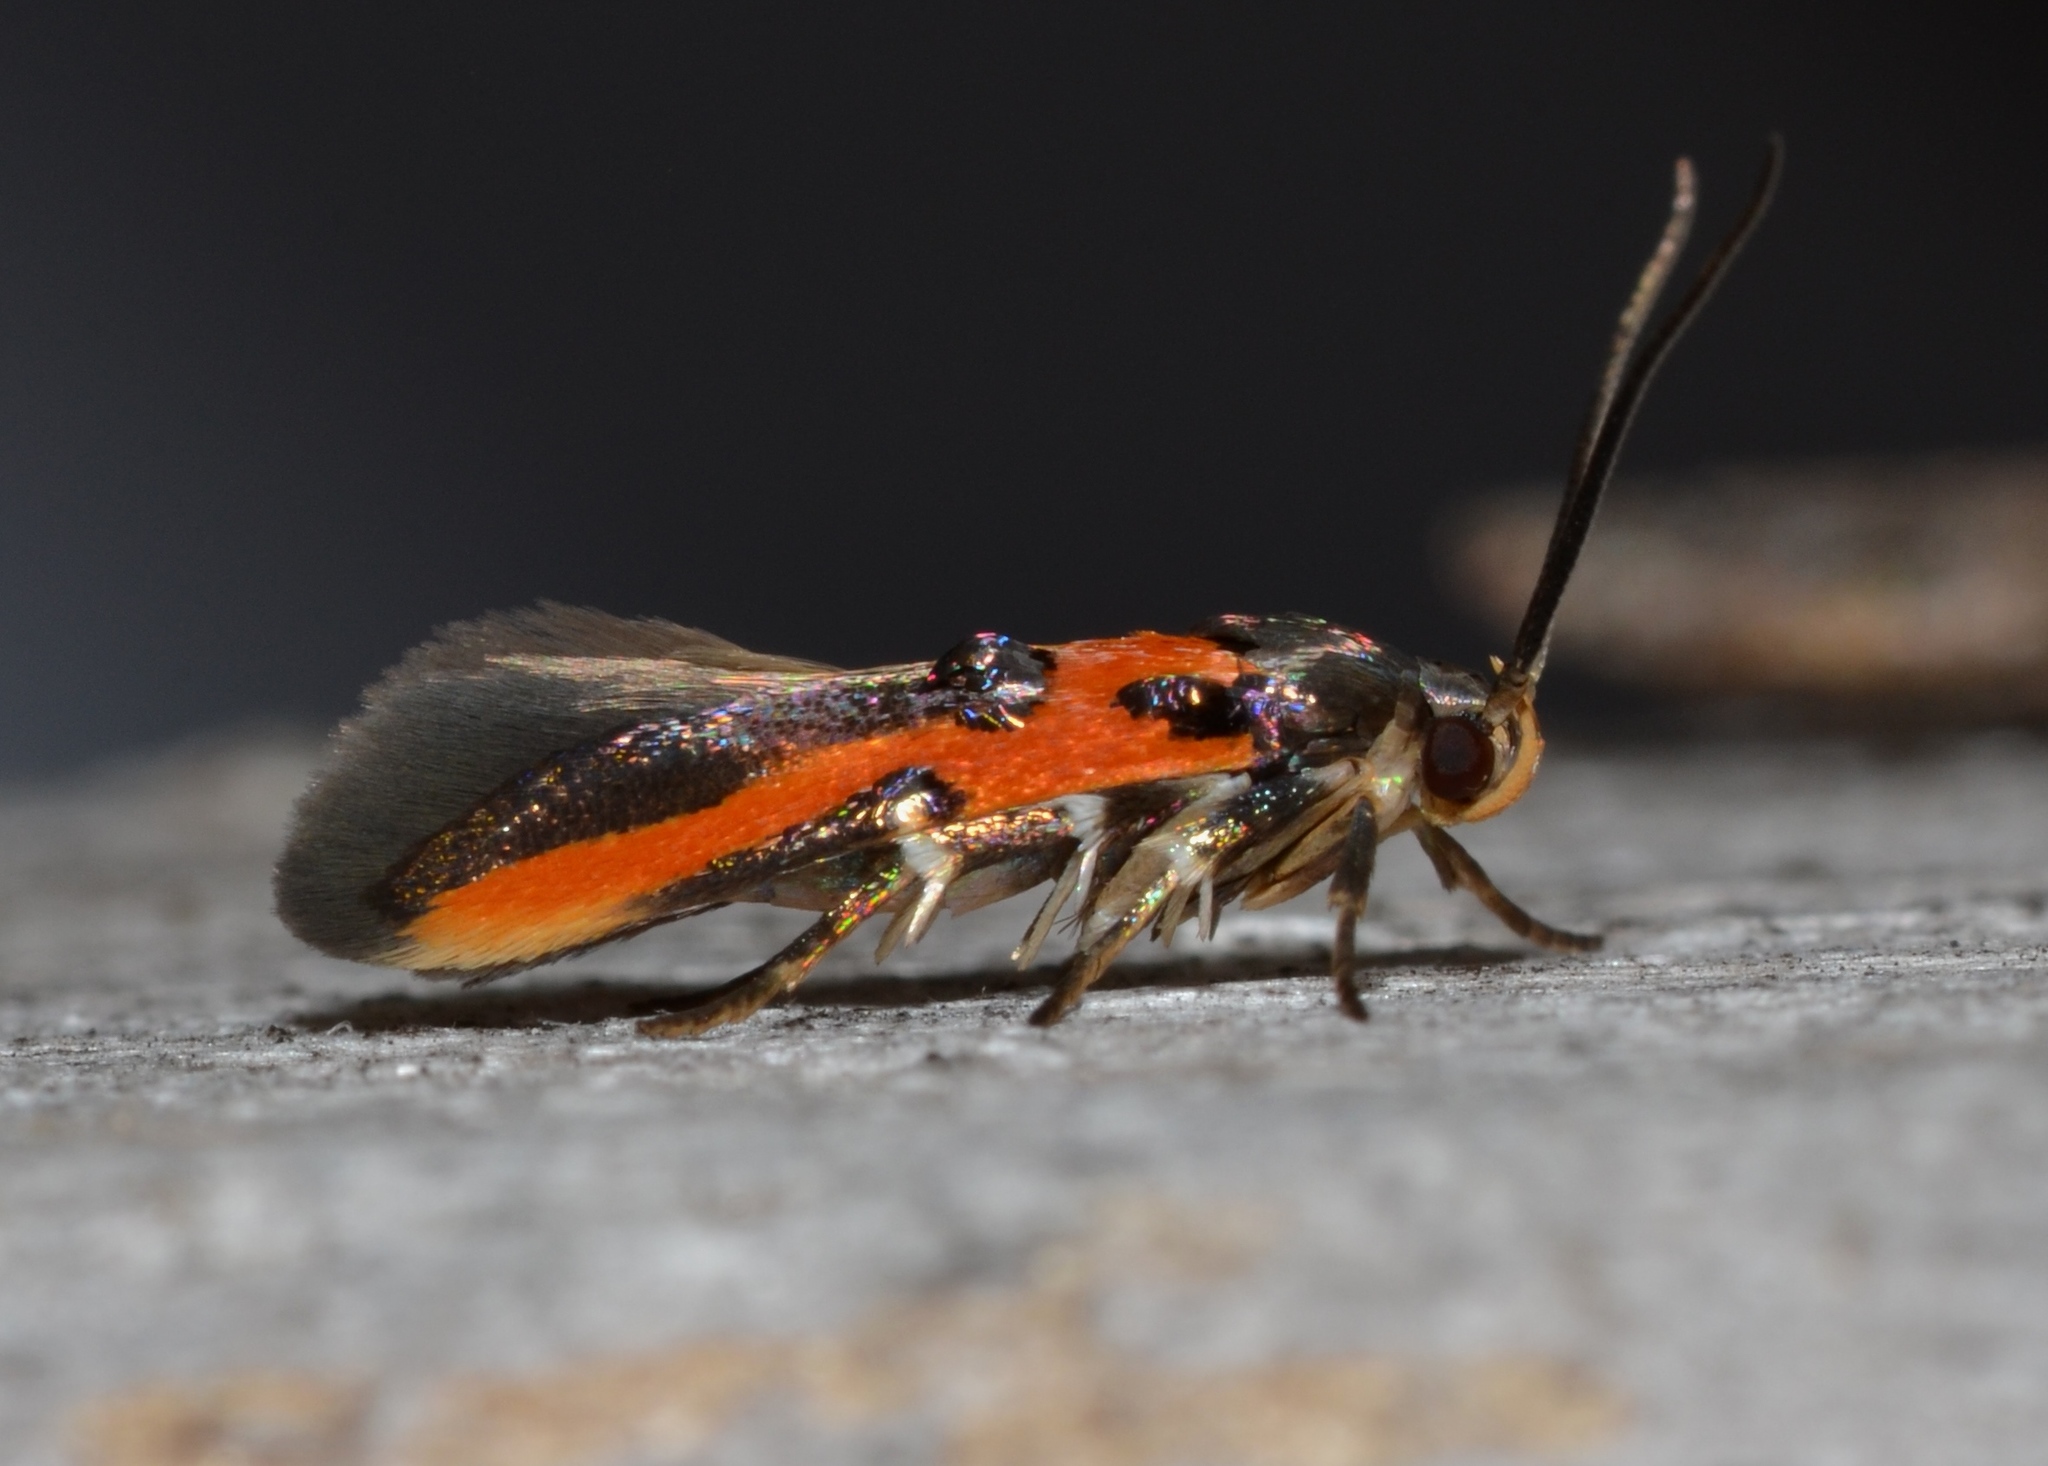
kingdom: Animalia
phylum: Arthropoda
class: Insecta
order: Lepidoptera
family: Cosmopterigidae
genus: Euclemensia
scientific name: Euclemensia bassettella
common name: Kermes scale moth
